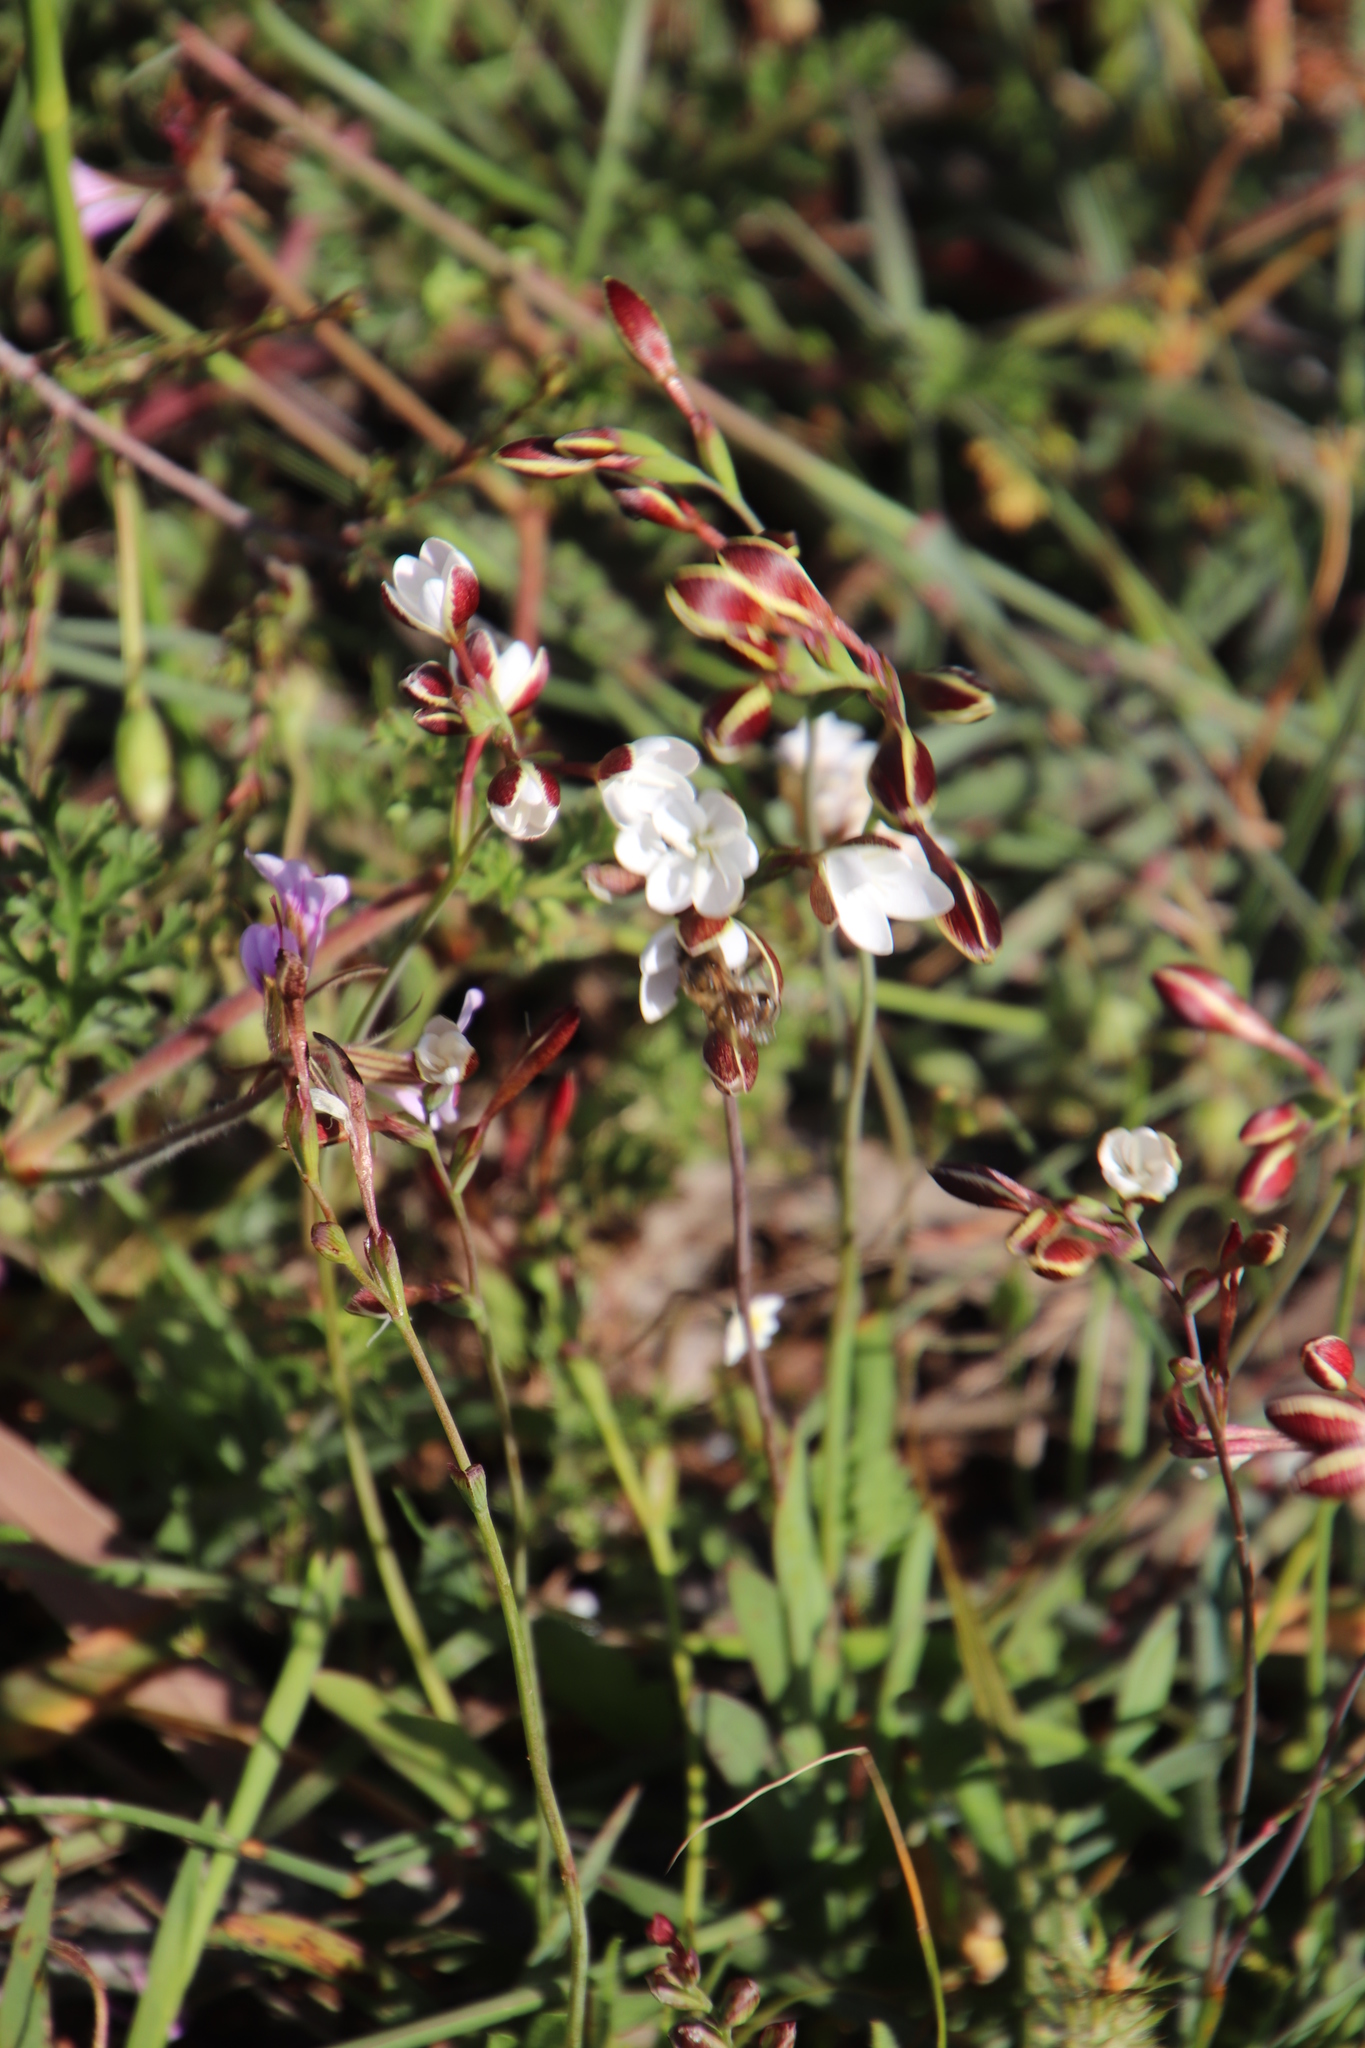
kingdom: Plantae
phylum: Tracheophyta
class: Liliopsida
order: Asparagales
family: Iridaceae
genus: Hesperantha
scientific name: Hesperantha falcata
